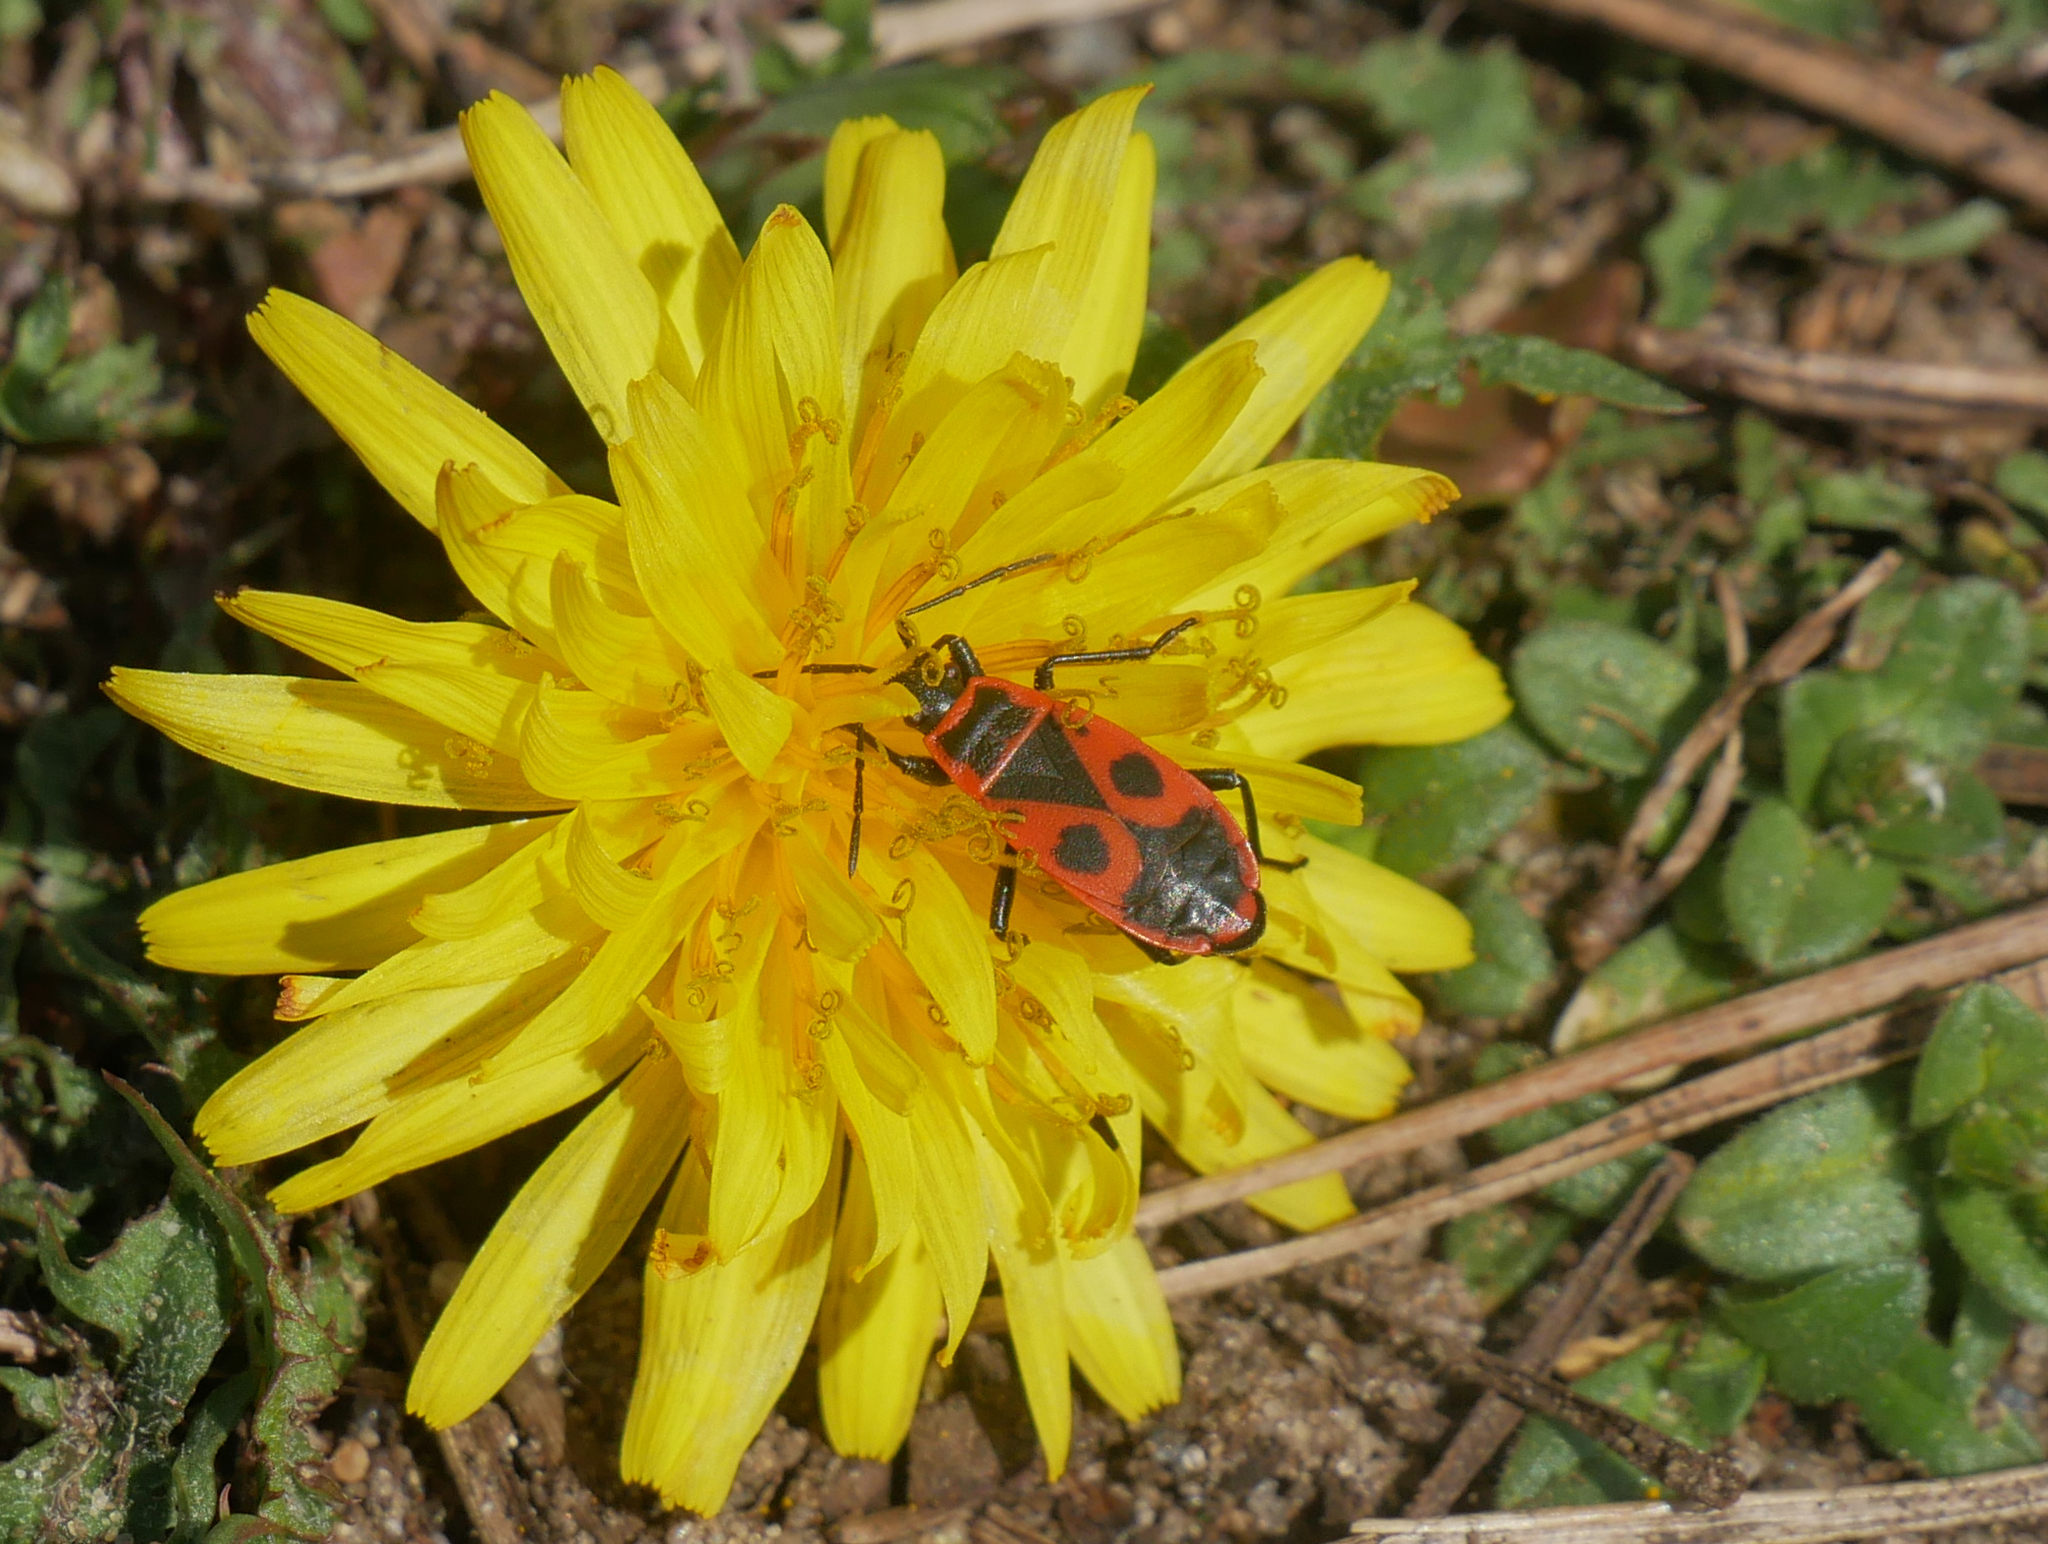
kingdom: Animalia
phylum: Arthropoda
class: Insecta
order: Hemiptera
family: Pyrrhocoridae
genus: Pyrrhocoris
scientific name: Pyrrhocoris apterus
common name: Firebug
